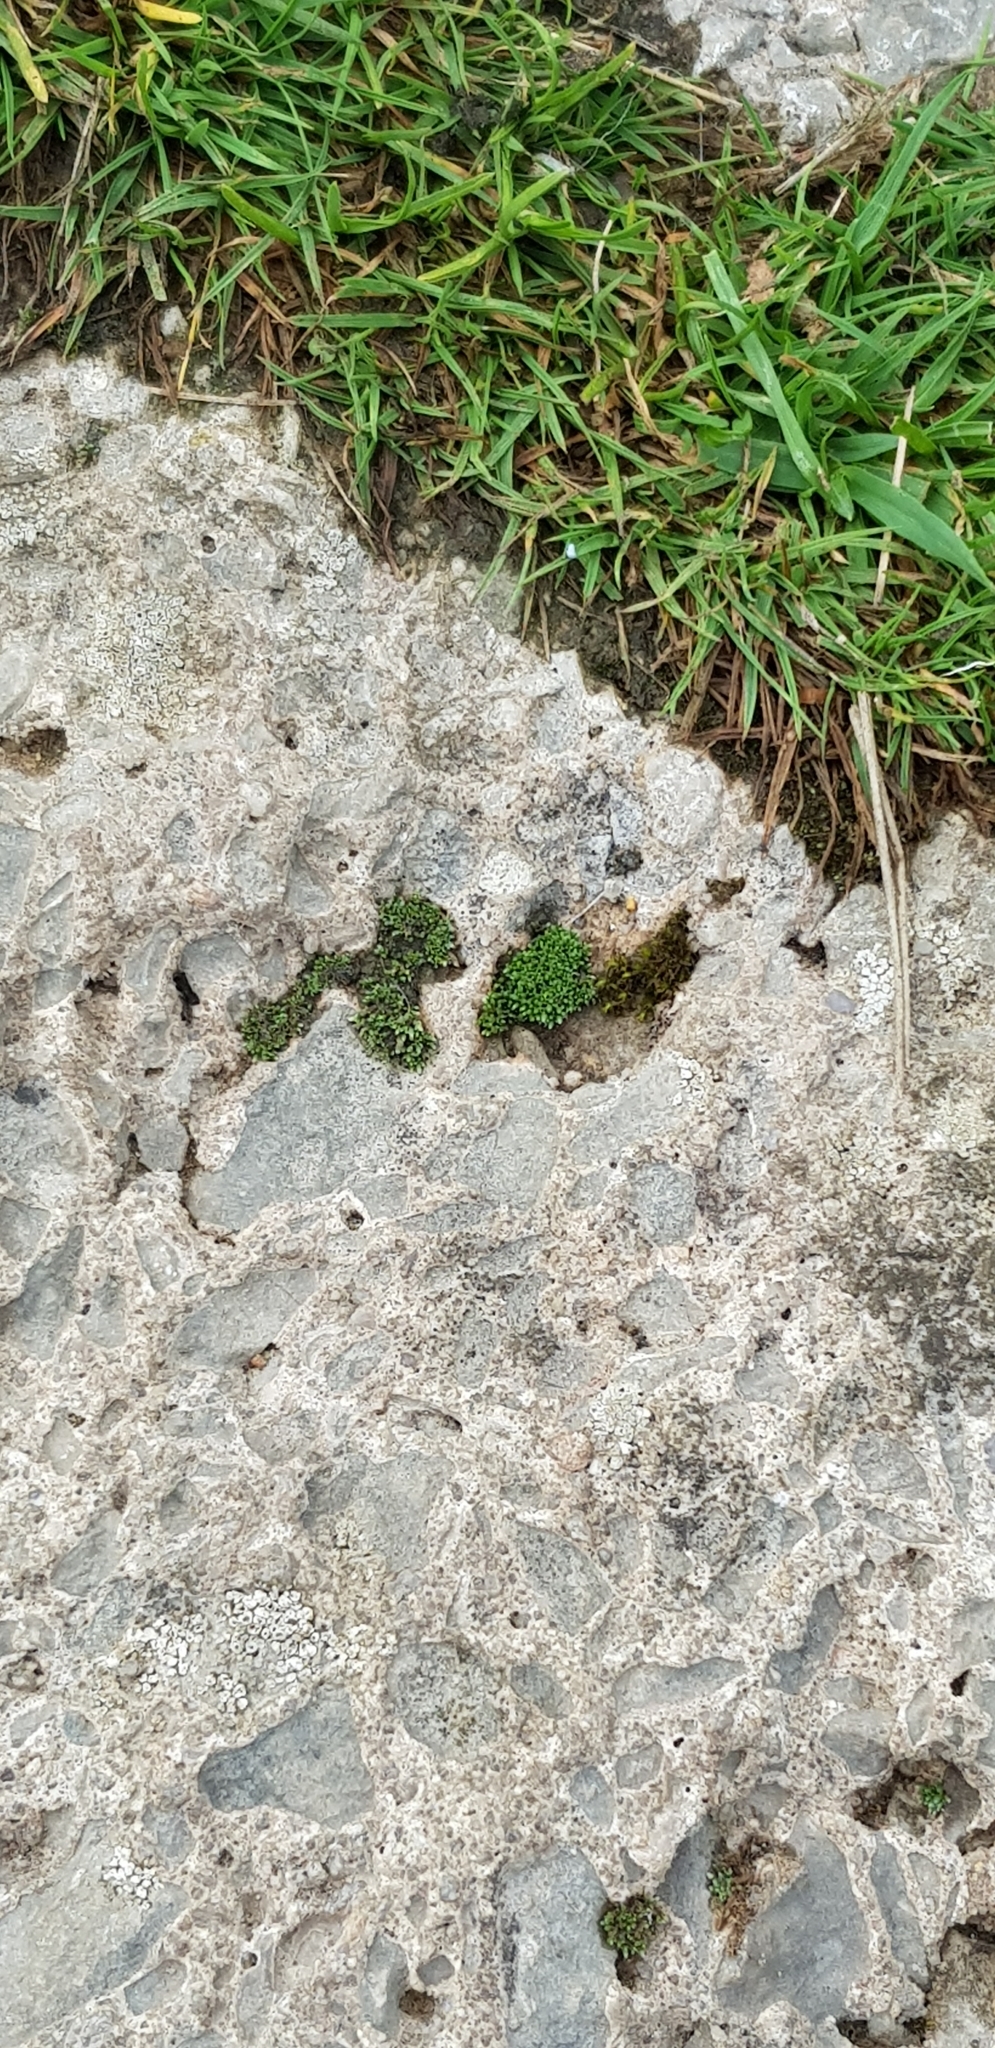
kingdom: Plantae
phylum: Bryophyta
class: Bryopsida
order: Bryales
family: Bryaceae
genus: Bryum
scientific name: Bryum argenteum
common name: Silver-moss
